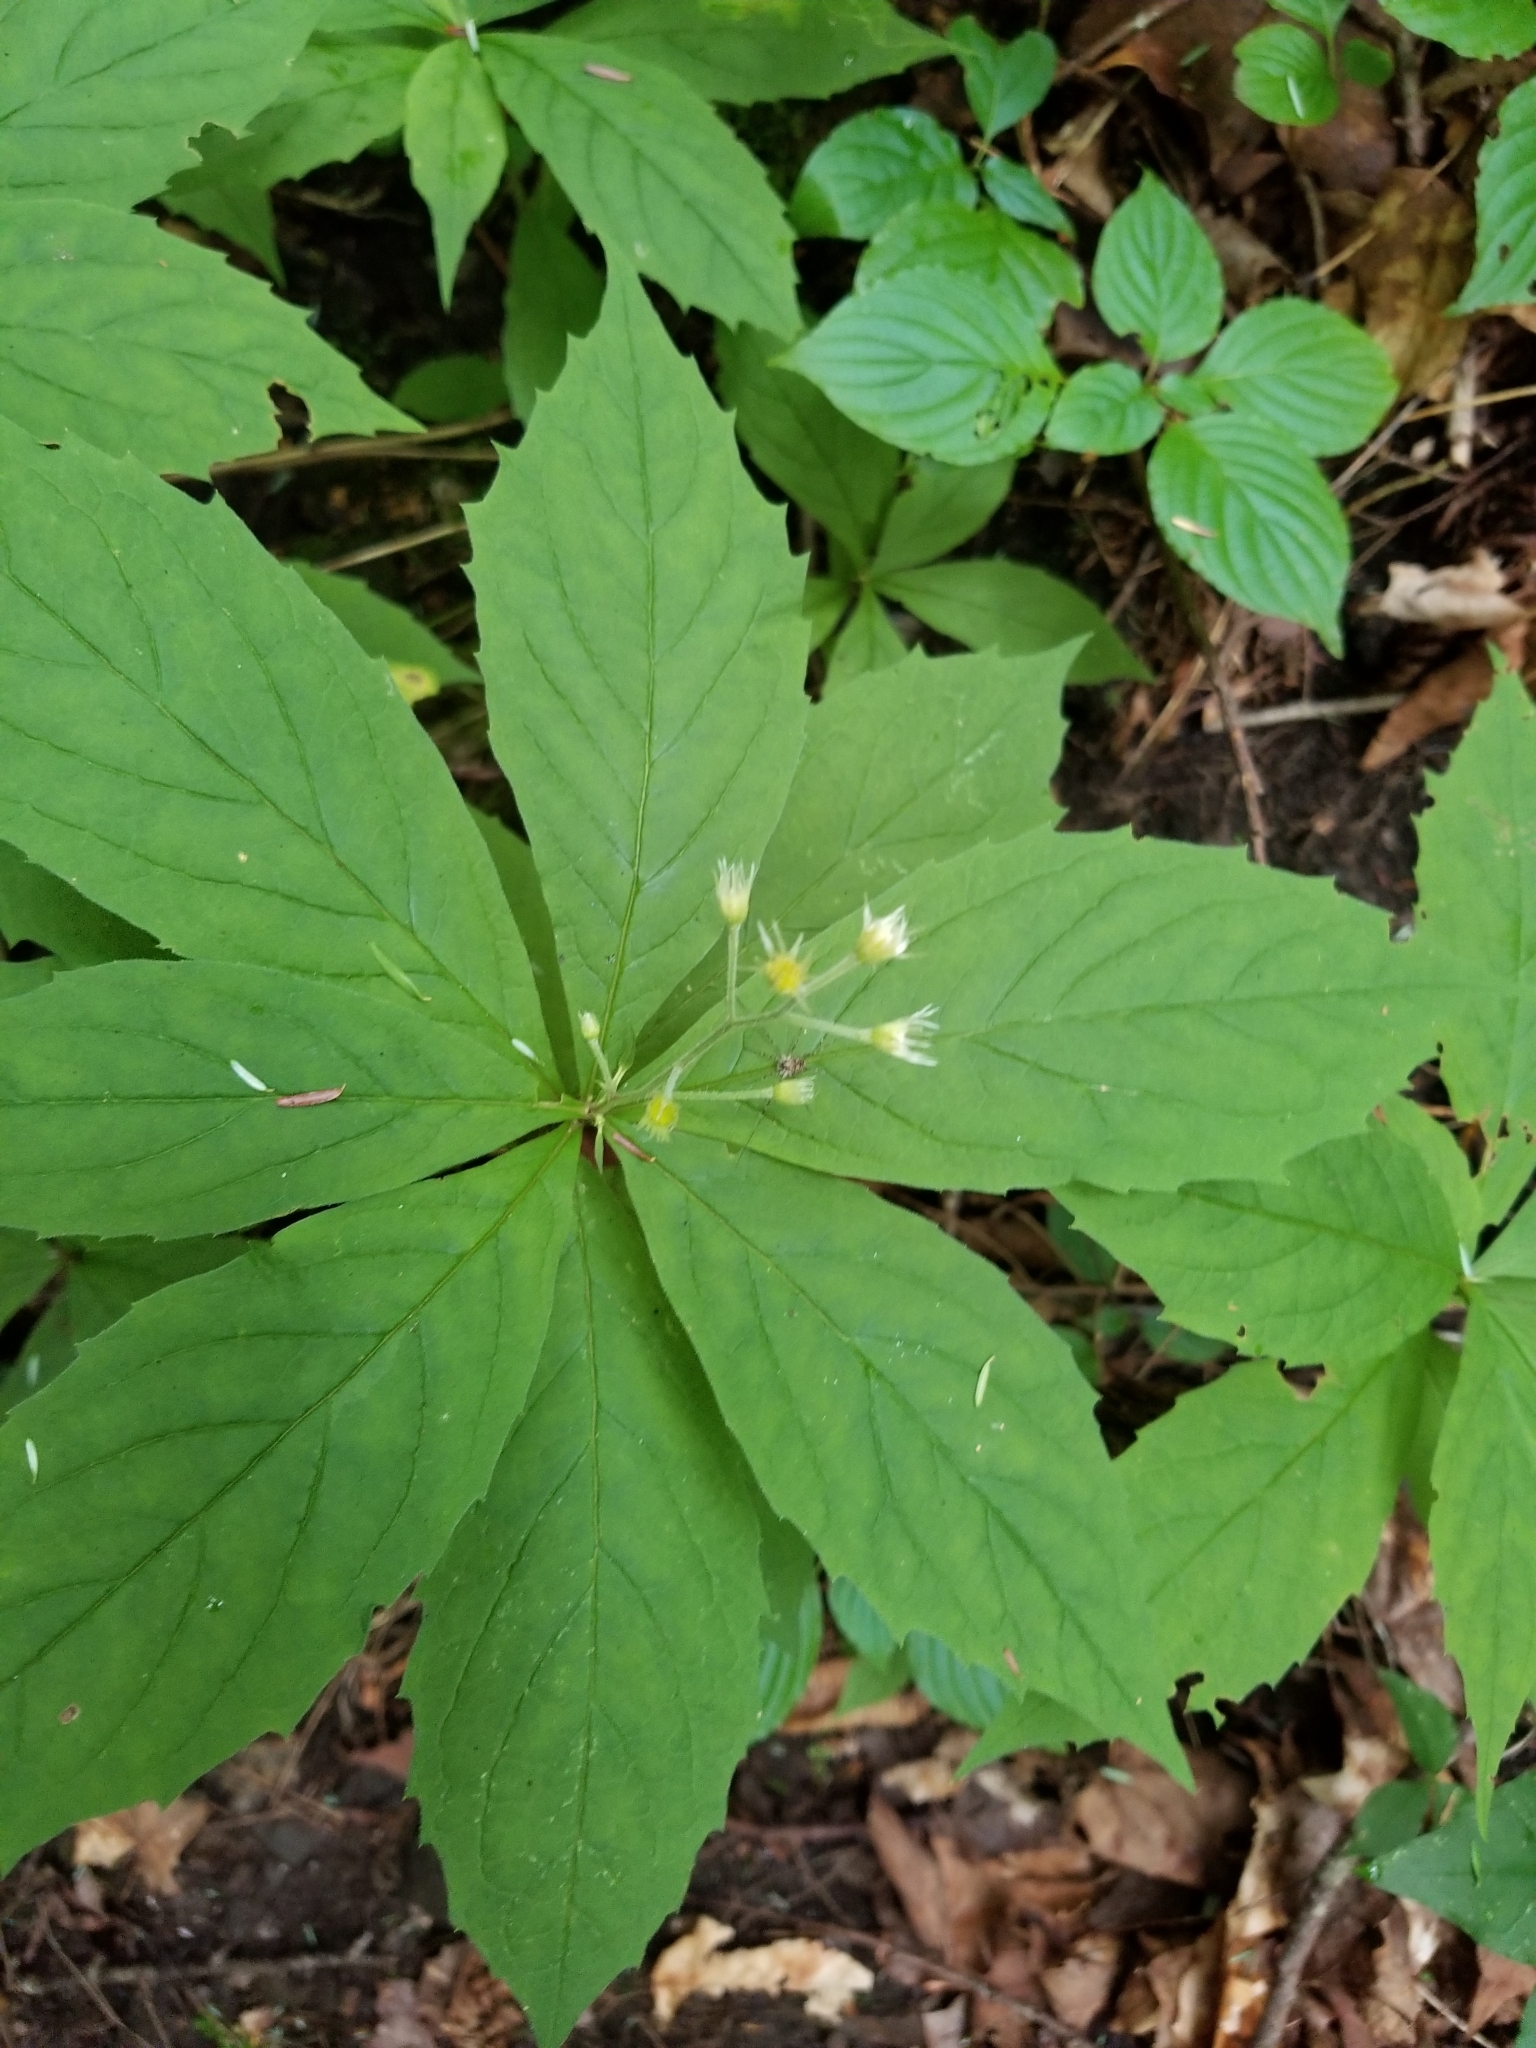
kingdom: Plantae
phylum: Tracheophyta
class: Magnoliopsida
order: Asterales
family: Asteraceae
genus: Oclemena
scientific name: Oclemena acuminata
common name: Mountain aster
